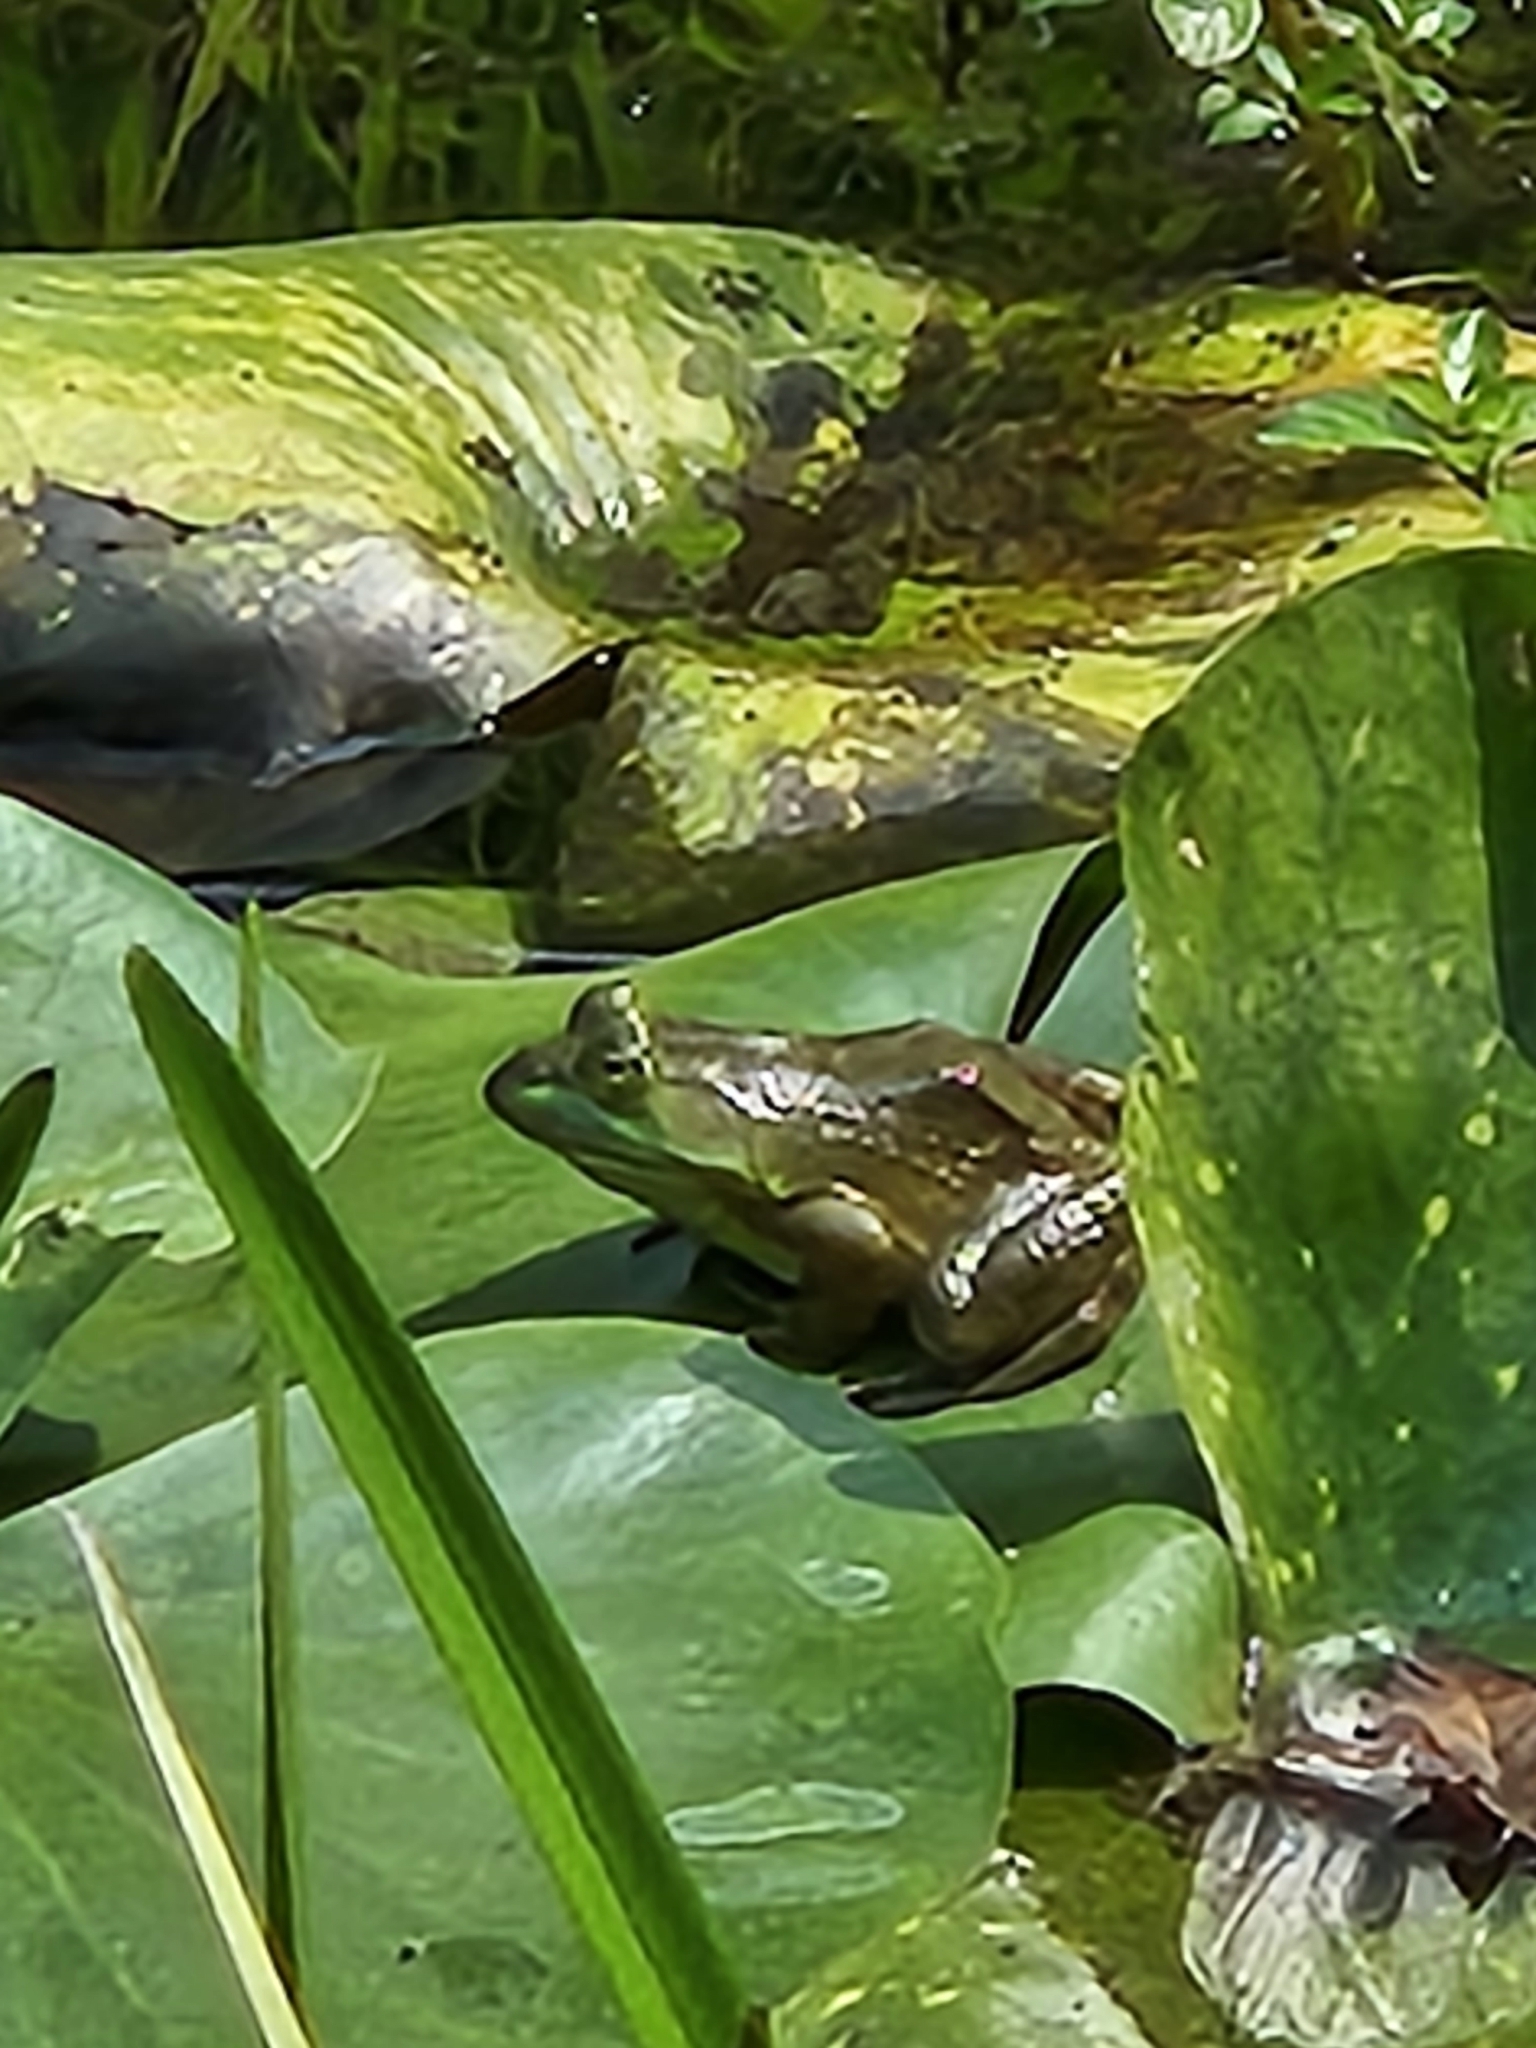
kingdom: Animalia
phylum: Chordata
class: Amphibia
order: Anura
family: Ranidae
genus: Lithobates
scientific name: Lithobates catesbeianus
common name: American bullfrog
